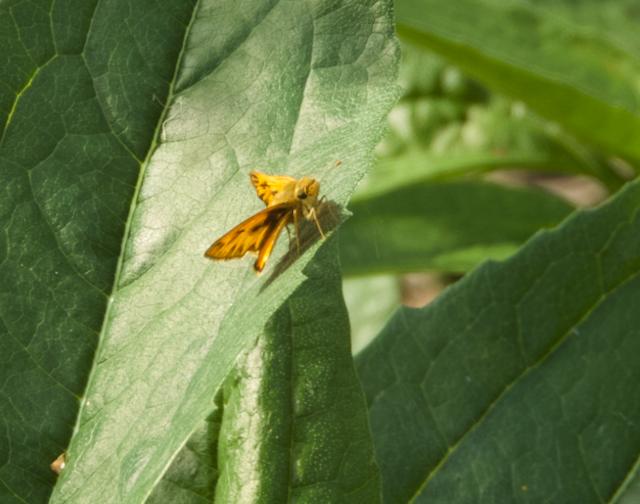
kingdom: Animalia
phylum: Arthropoda
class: Insecta
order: Lepidoptera
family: Hesperiidae
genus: Hylephila
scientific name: Hylephila phyleus
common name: Fiery skipper
